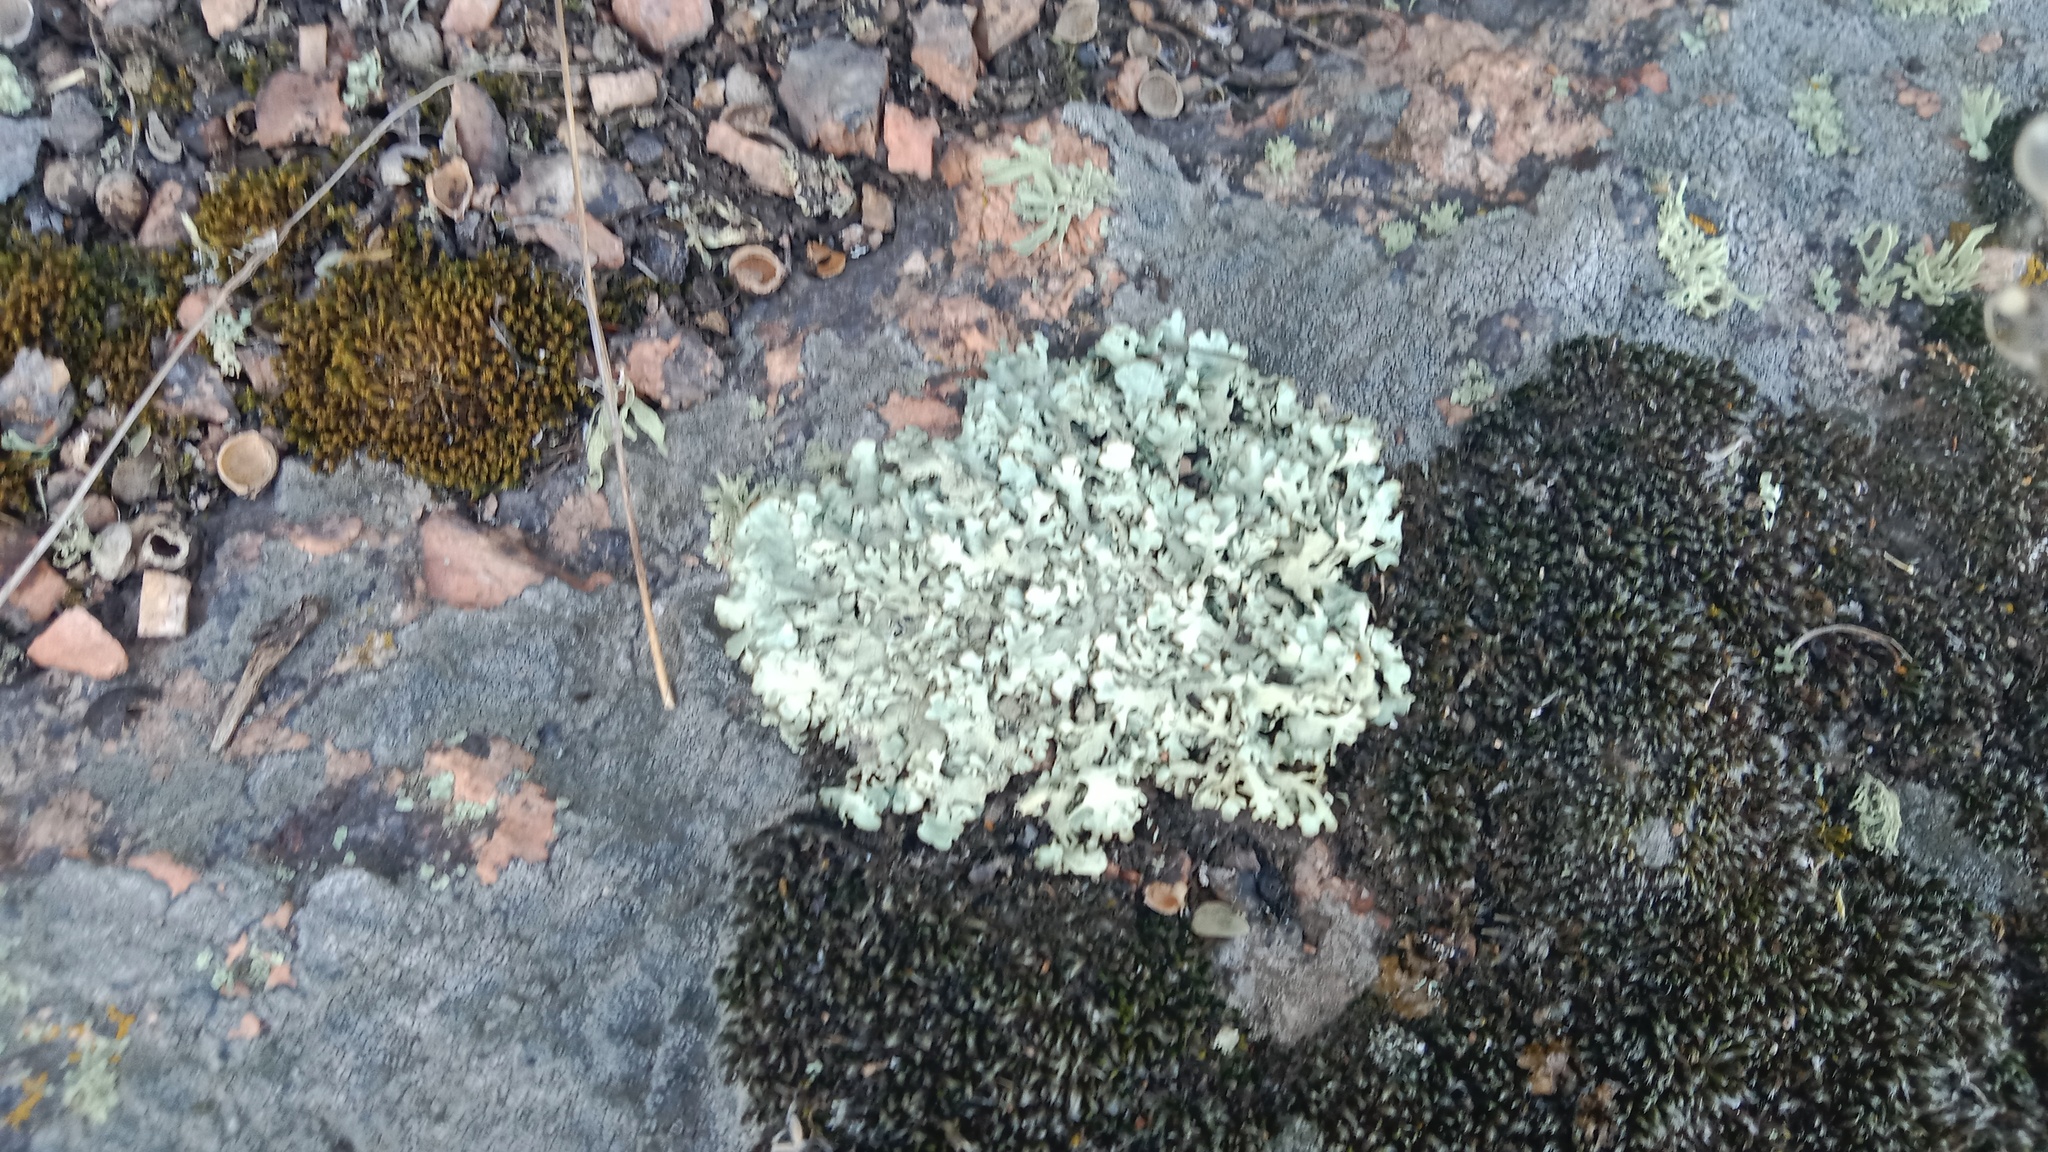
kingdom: Fungi
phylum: Ascomycota
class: Lecanoromycetes
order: Lecanorales
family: Parmeliaceae
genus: Xanthoparmelia
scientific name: Xanthoparmelia stenophylla
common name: Shingled rock shield
